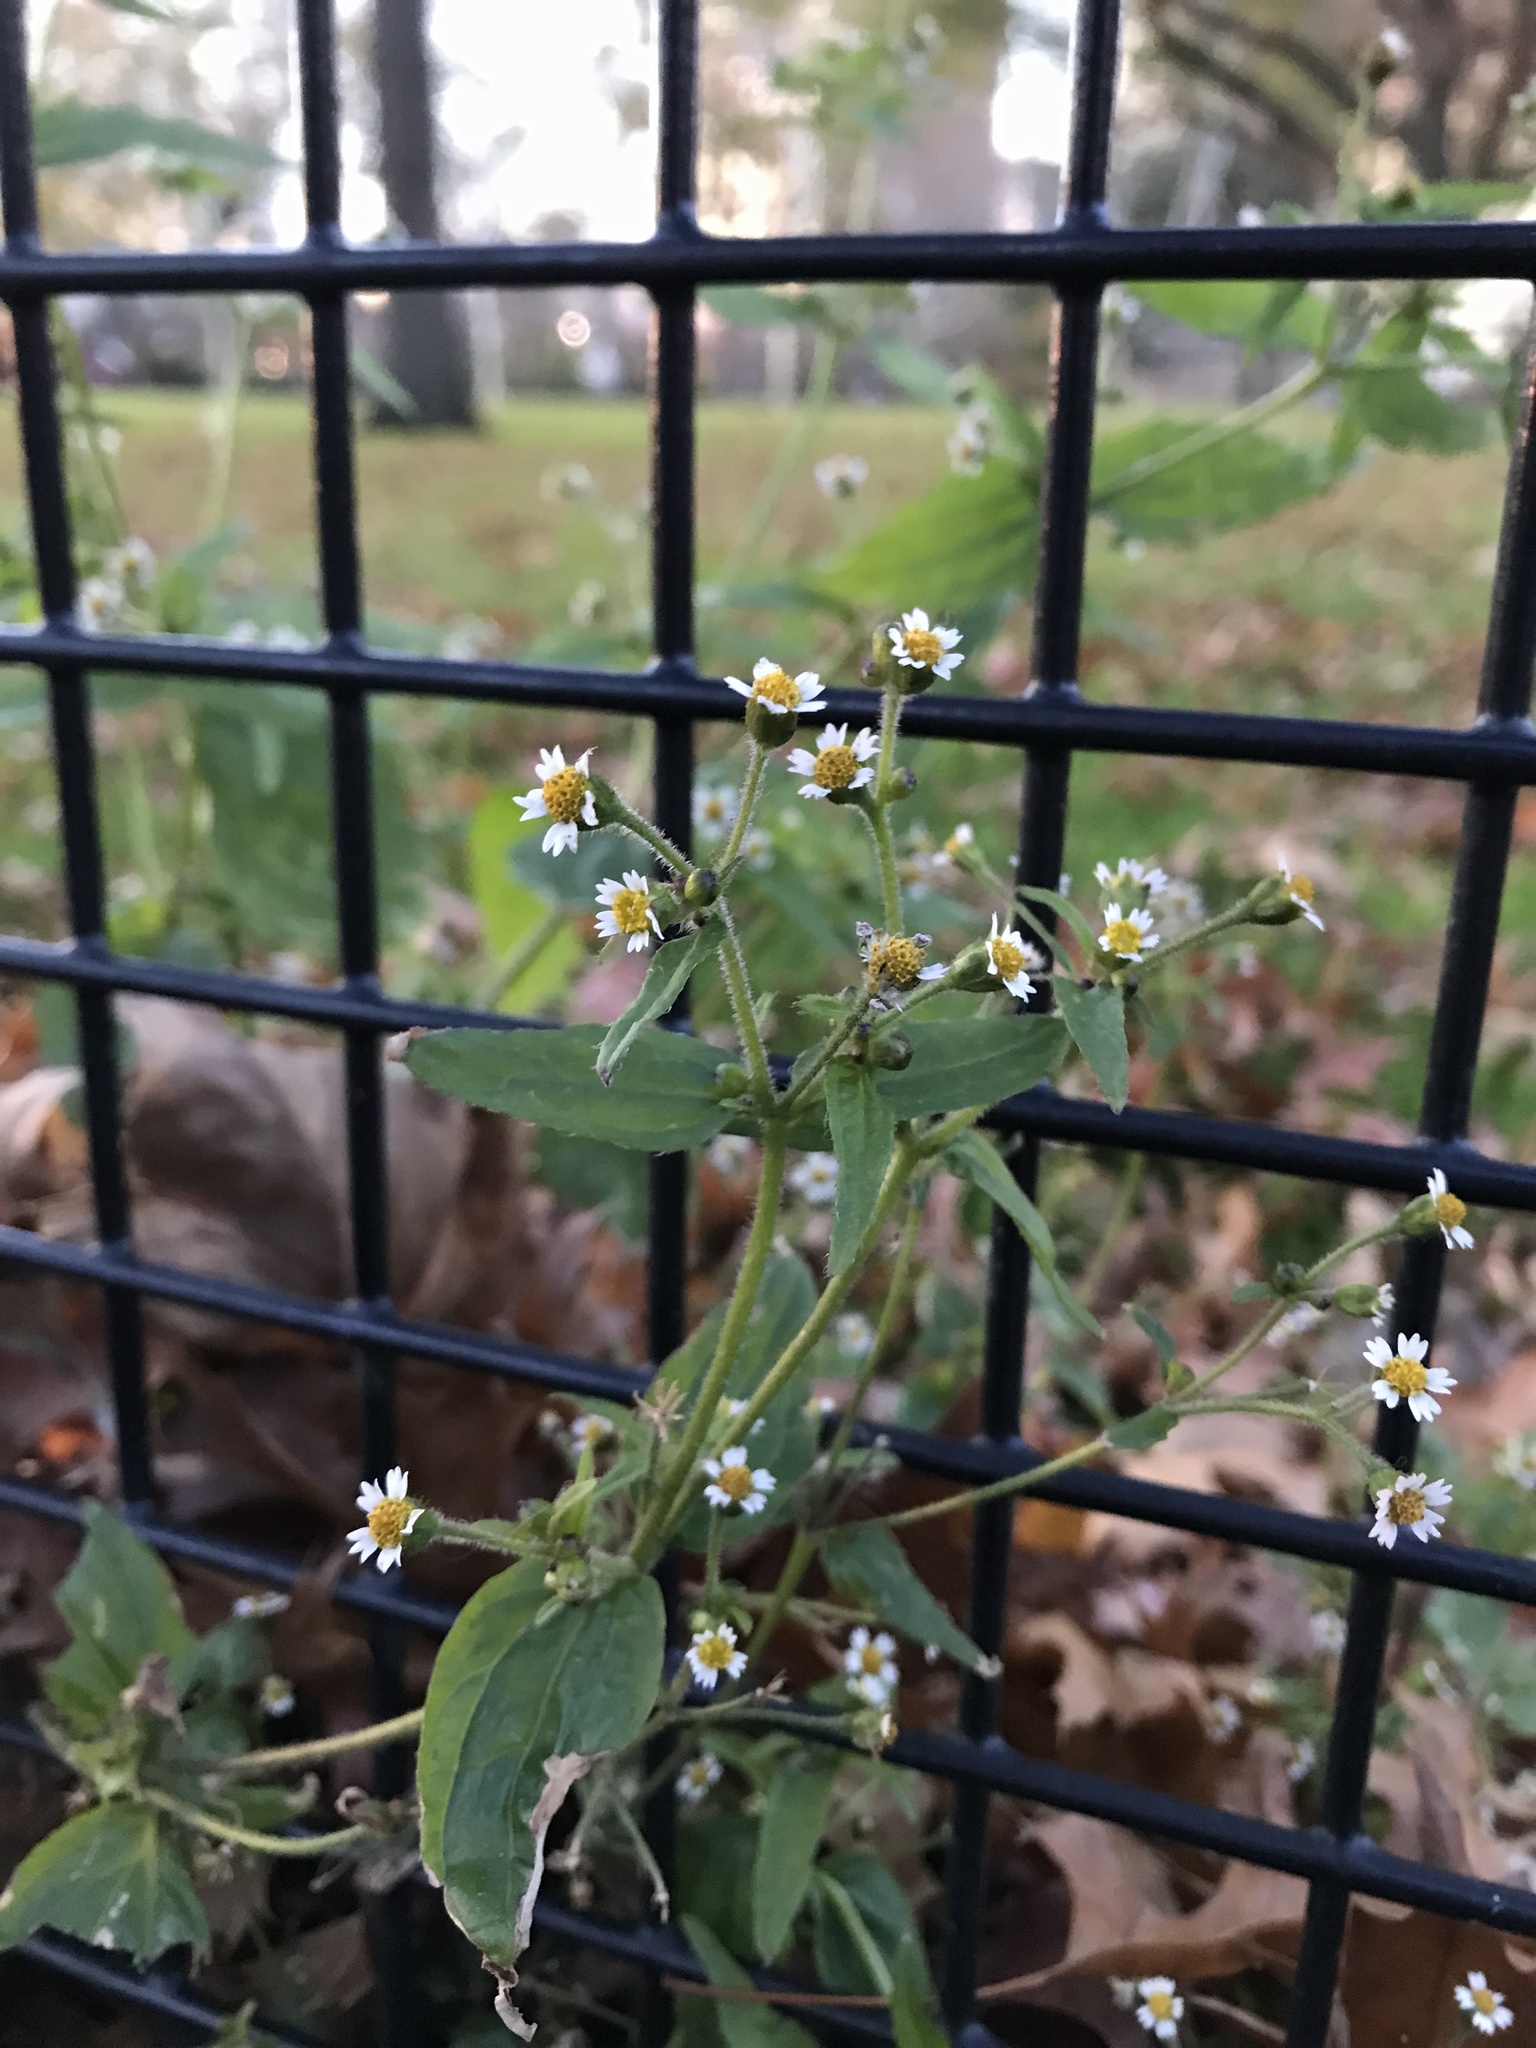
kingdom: Plantae
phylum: Tracheophyta
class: Magnoliopsida
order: Asterales
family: Asteraceae
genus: Galinsoga
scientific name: Galinsoga quadriradiata
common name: Shaggy soldier
